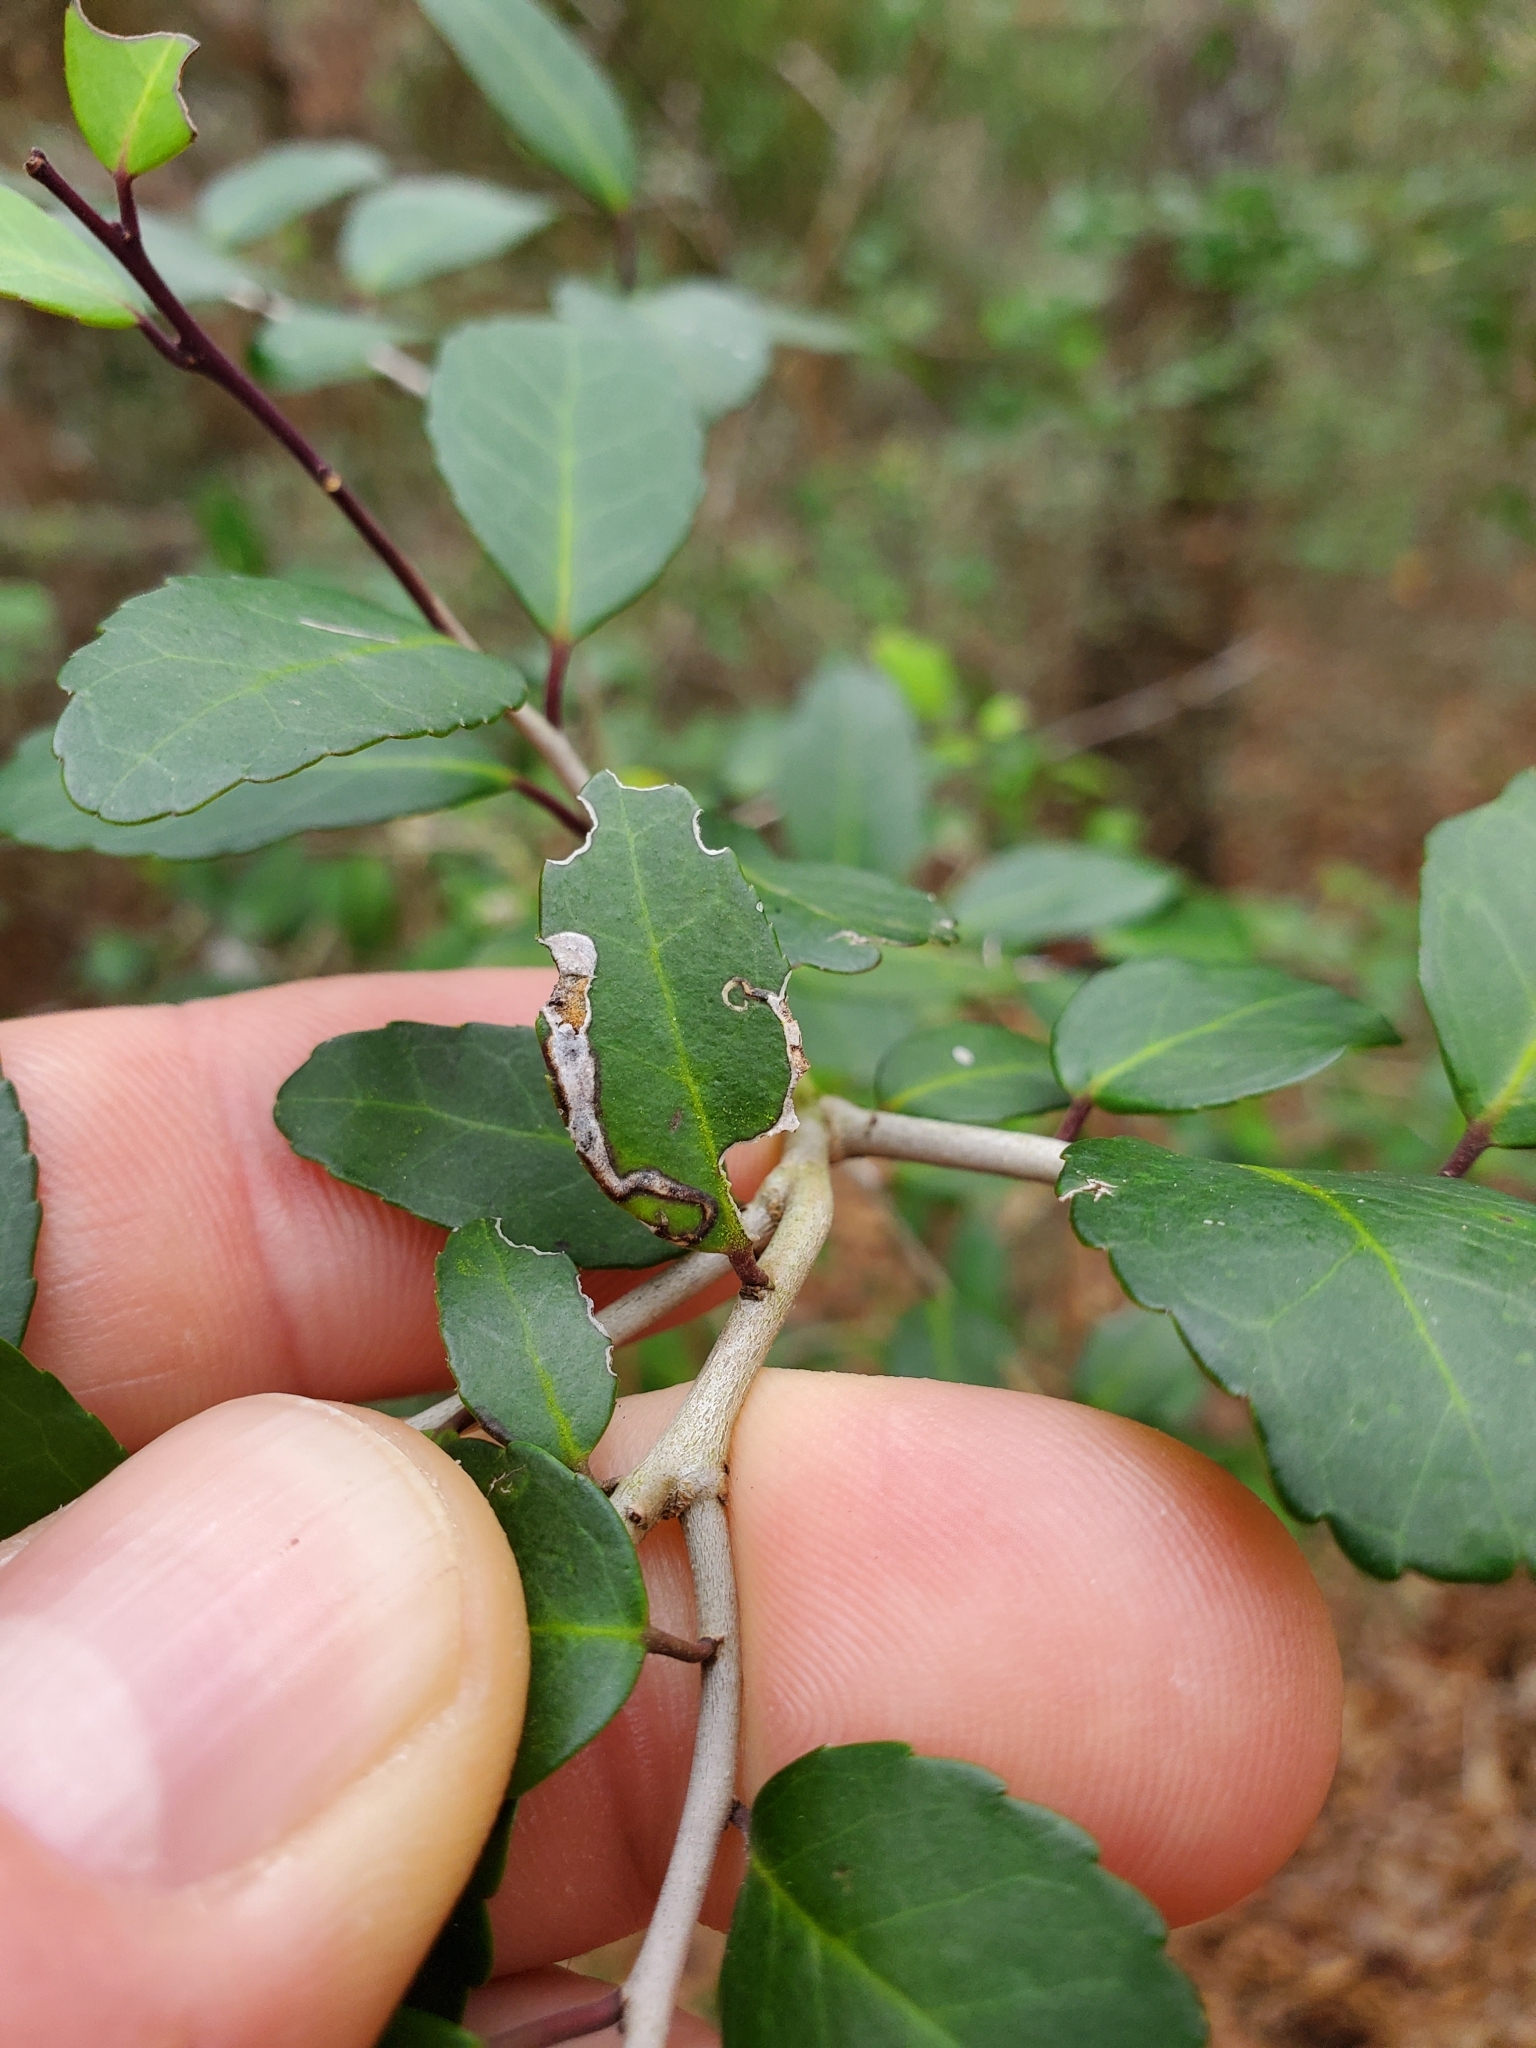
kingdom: Animalia
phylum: Arthropoda
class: Insecta
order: Diptera
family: Agromyzidae
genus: Phytomyza
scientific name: Phytomyza vomitoriae
